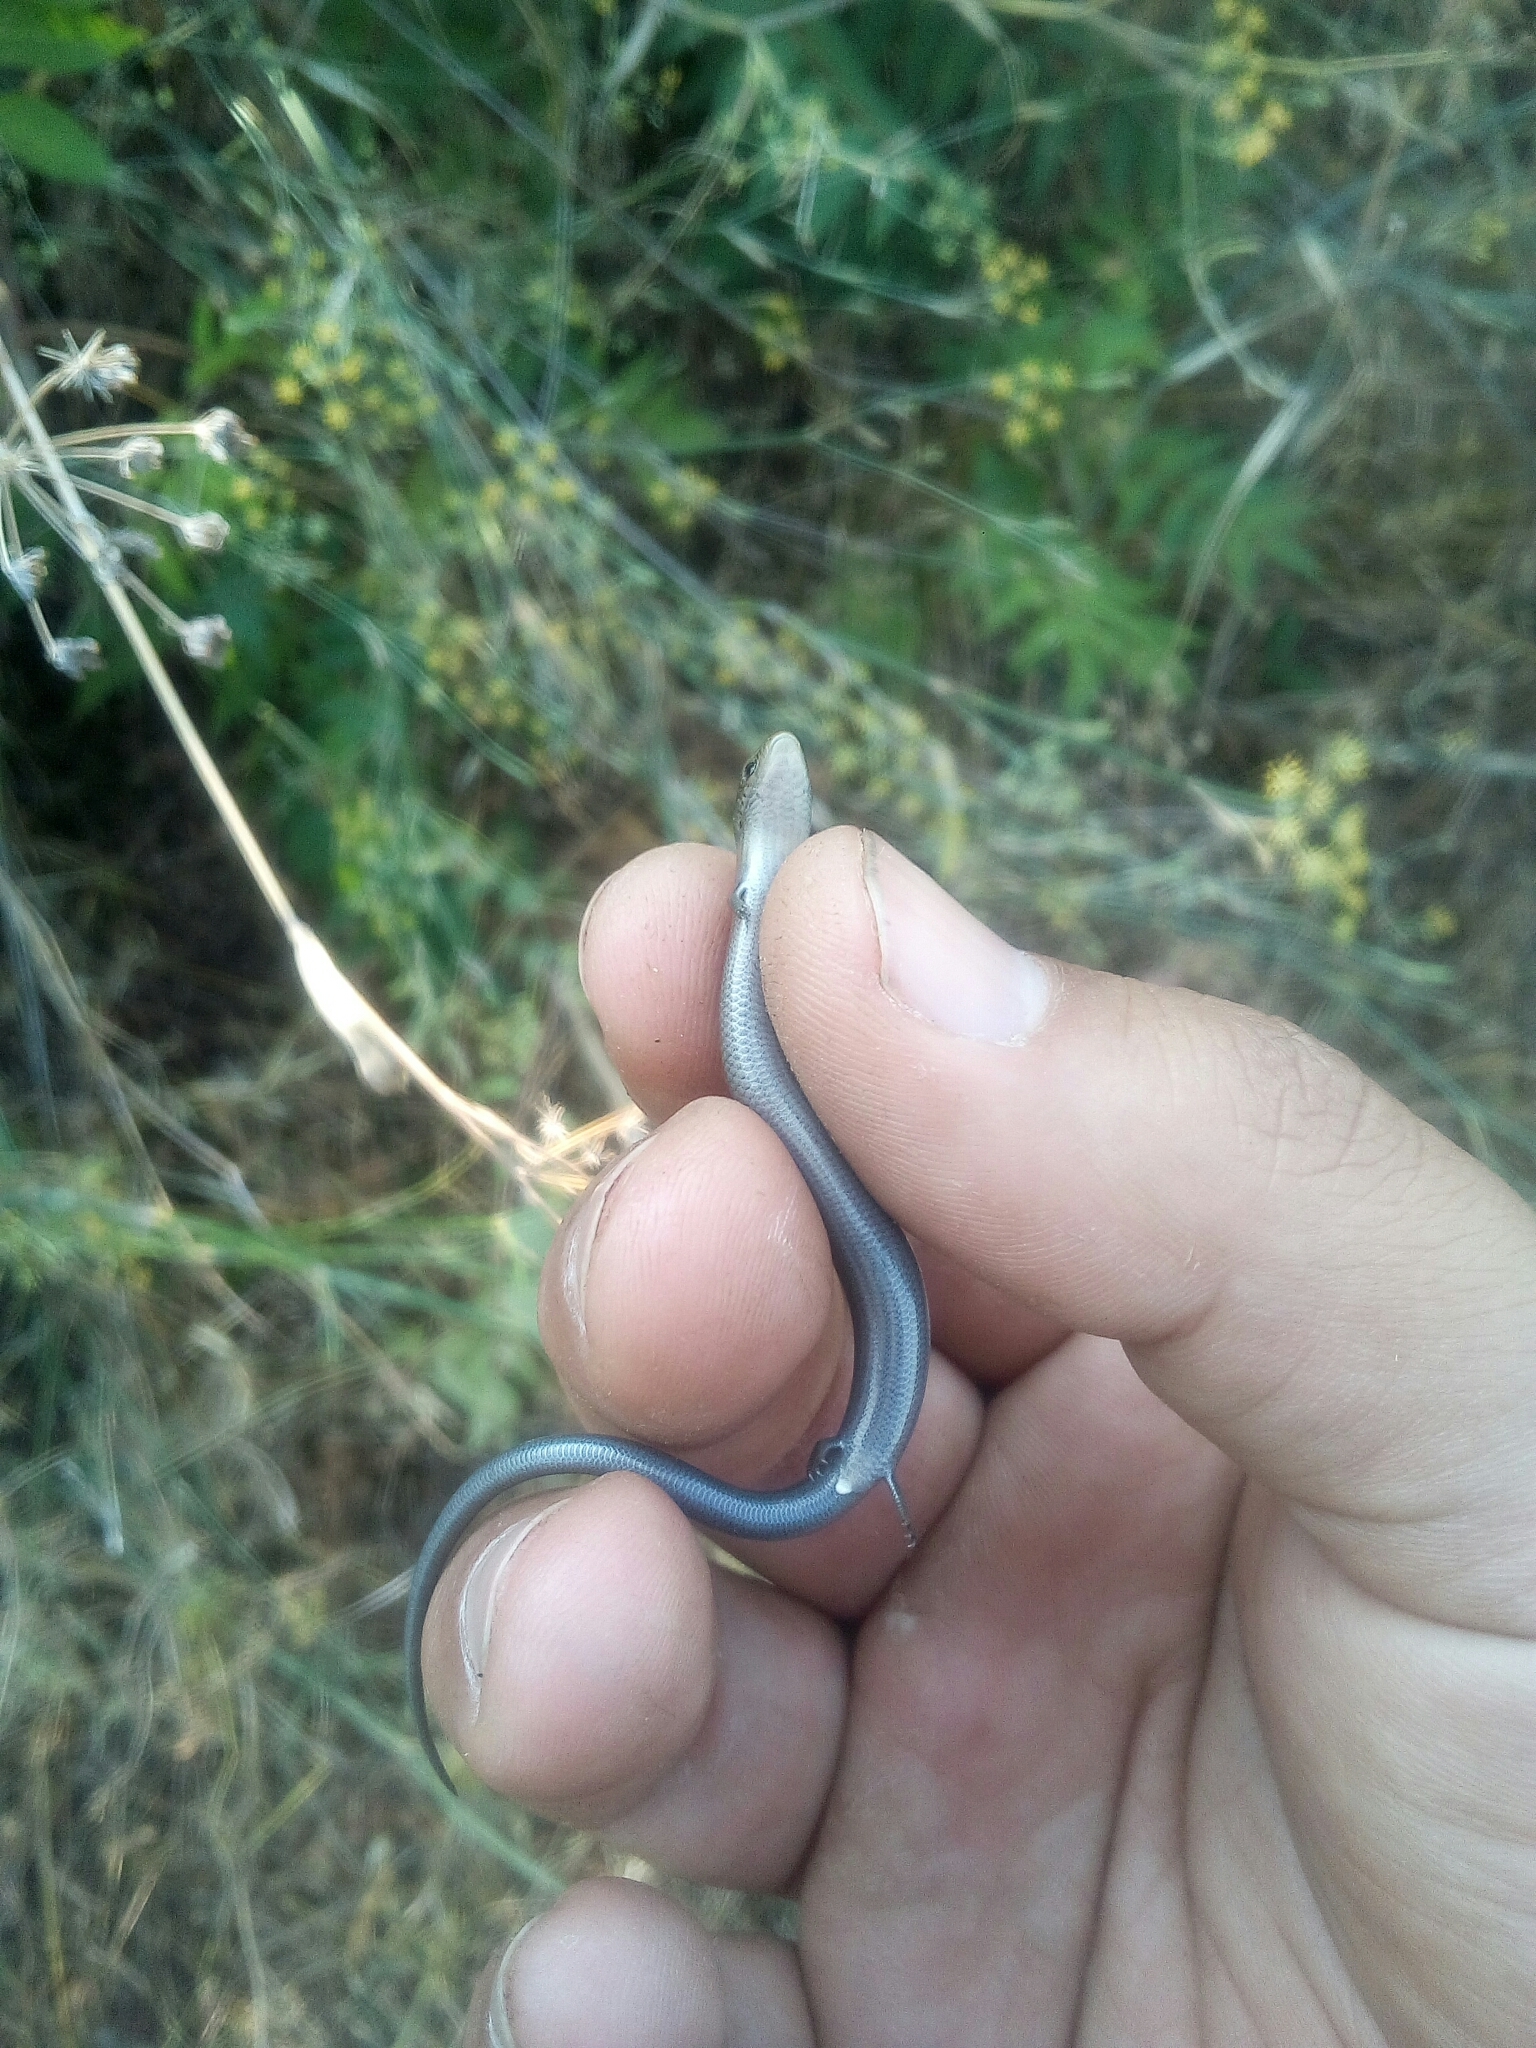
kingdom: Animalia
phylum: Chordata
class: Squamata
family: Scincidae
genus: Chalcides
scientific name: Chalcides striatus
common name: Western (or iberian) three-toed skink
